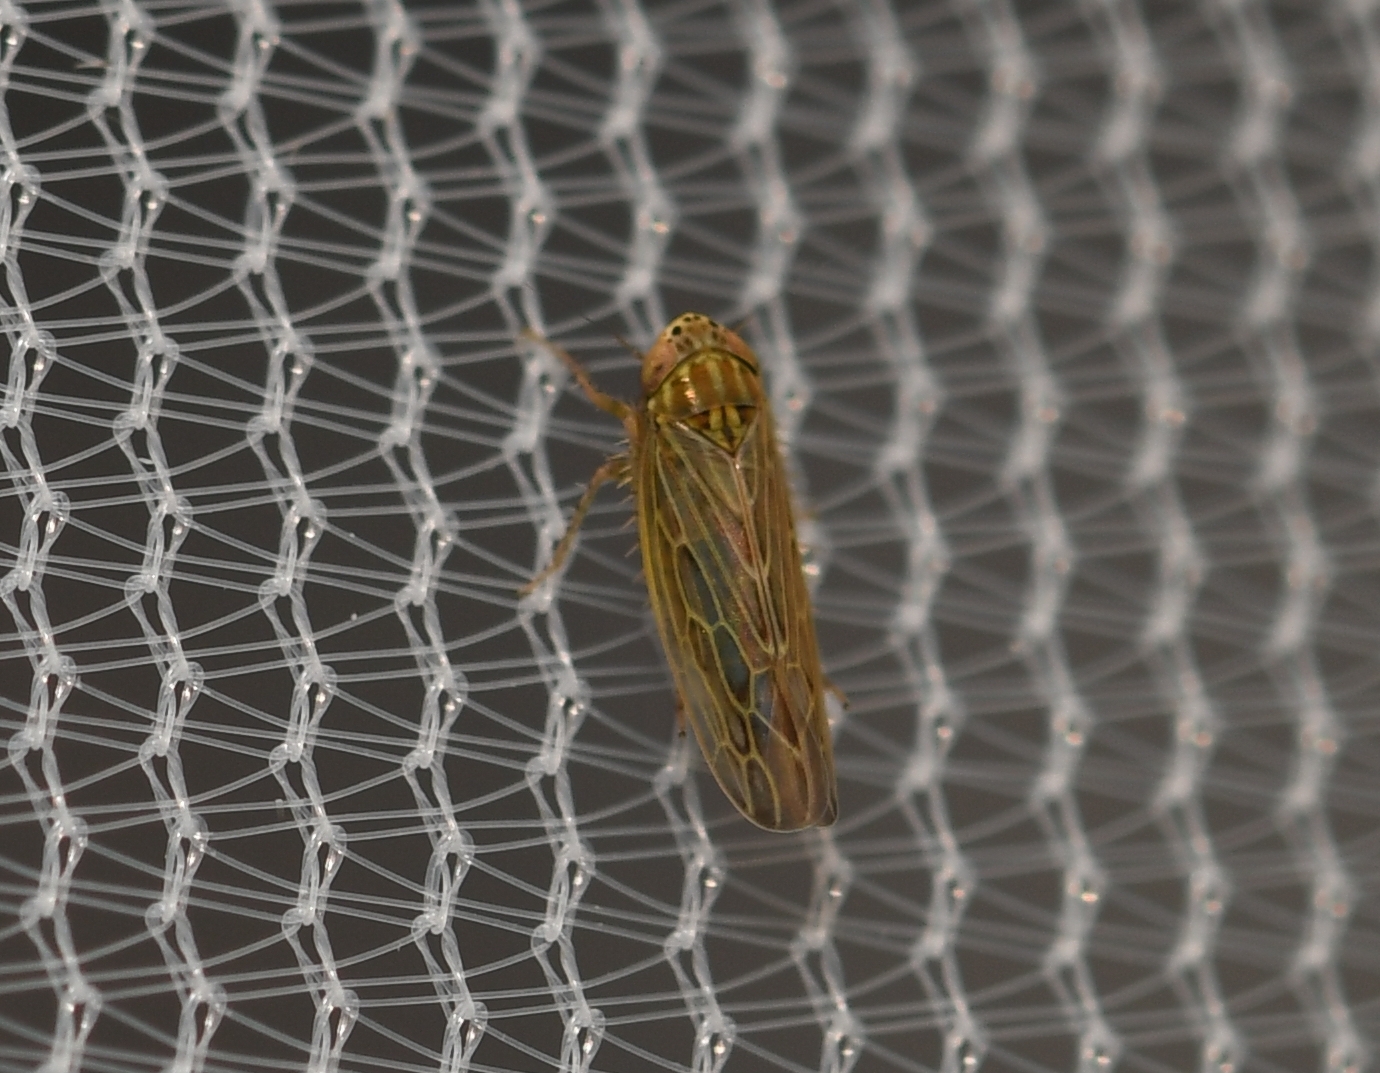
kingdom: Animalia
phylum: Arthropoda
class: Insecta
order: Hemiptera
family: Cicadellidae
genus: Graminella
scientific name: Graminella sonora
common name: Lesser lawn leafhopper
